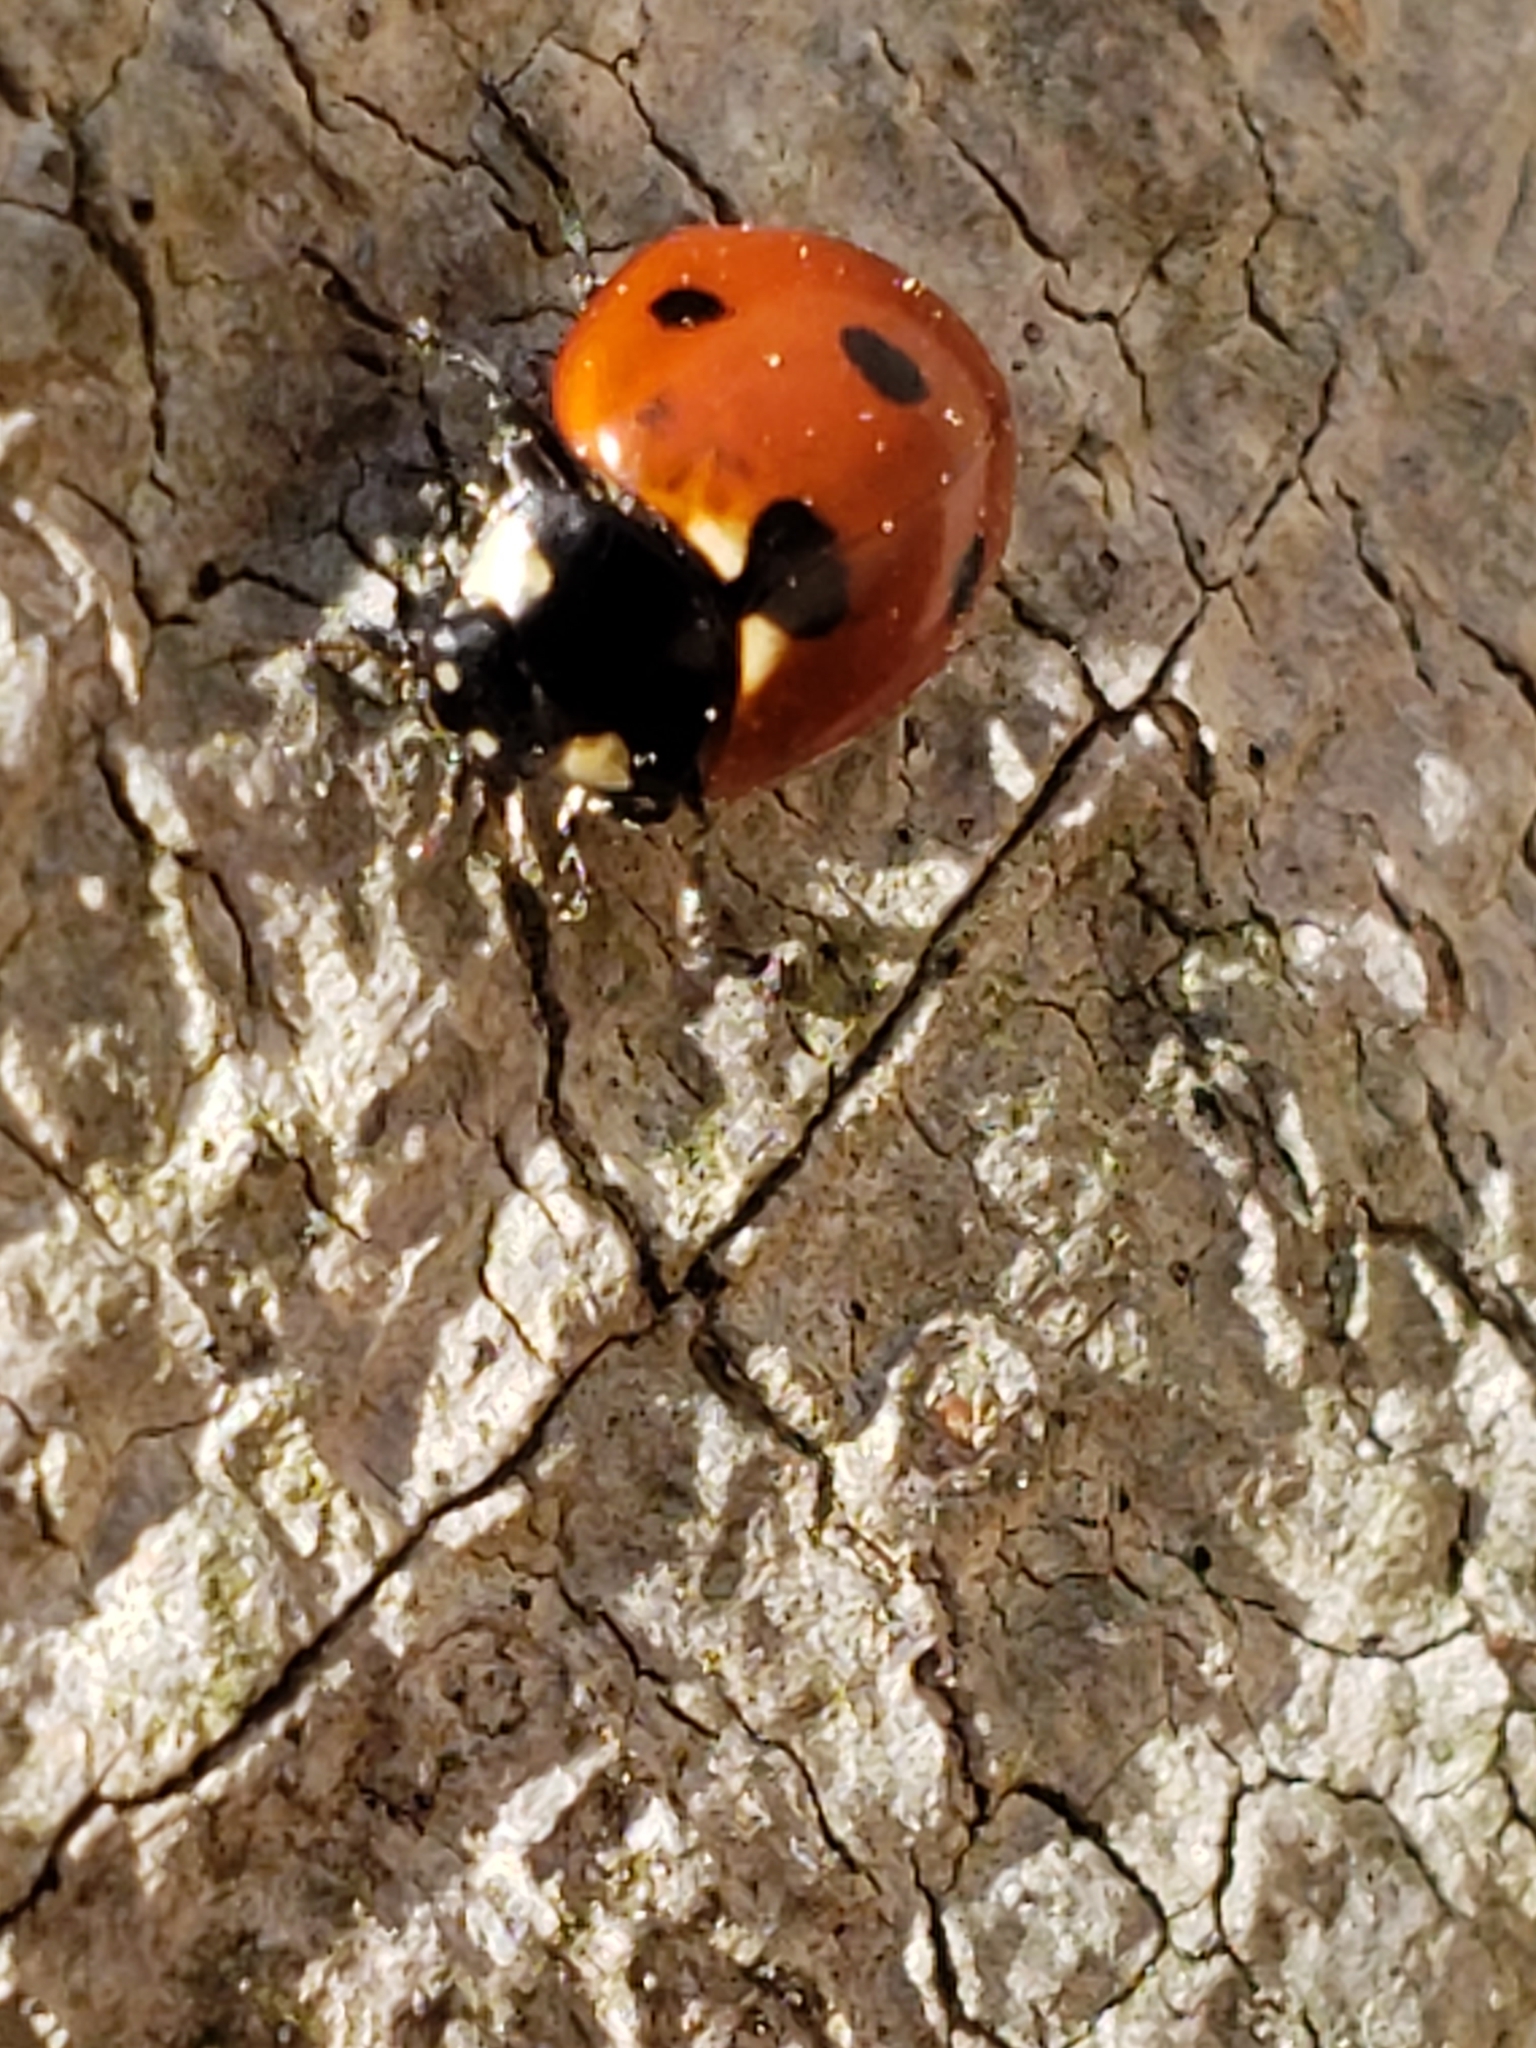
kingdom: Animalia
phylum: Arthropoda
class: Insecta
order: Coleoptera
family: Coccinellidae
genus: Coccinella
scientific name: Coccinella septempunctata
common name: Sevenspotted lady beetle
